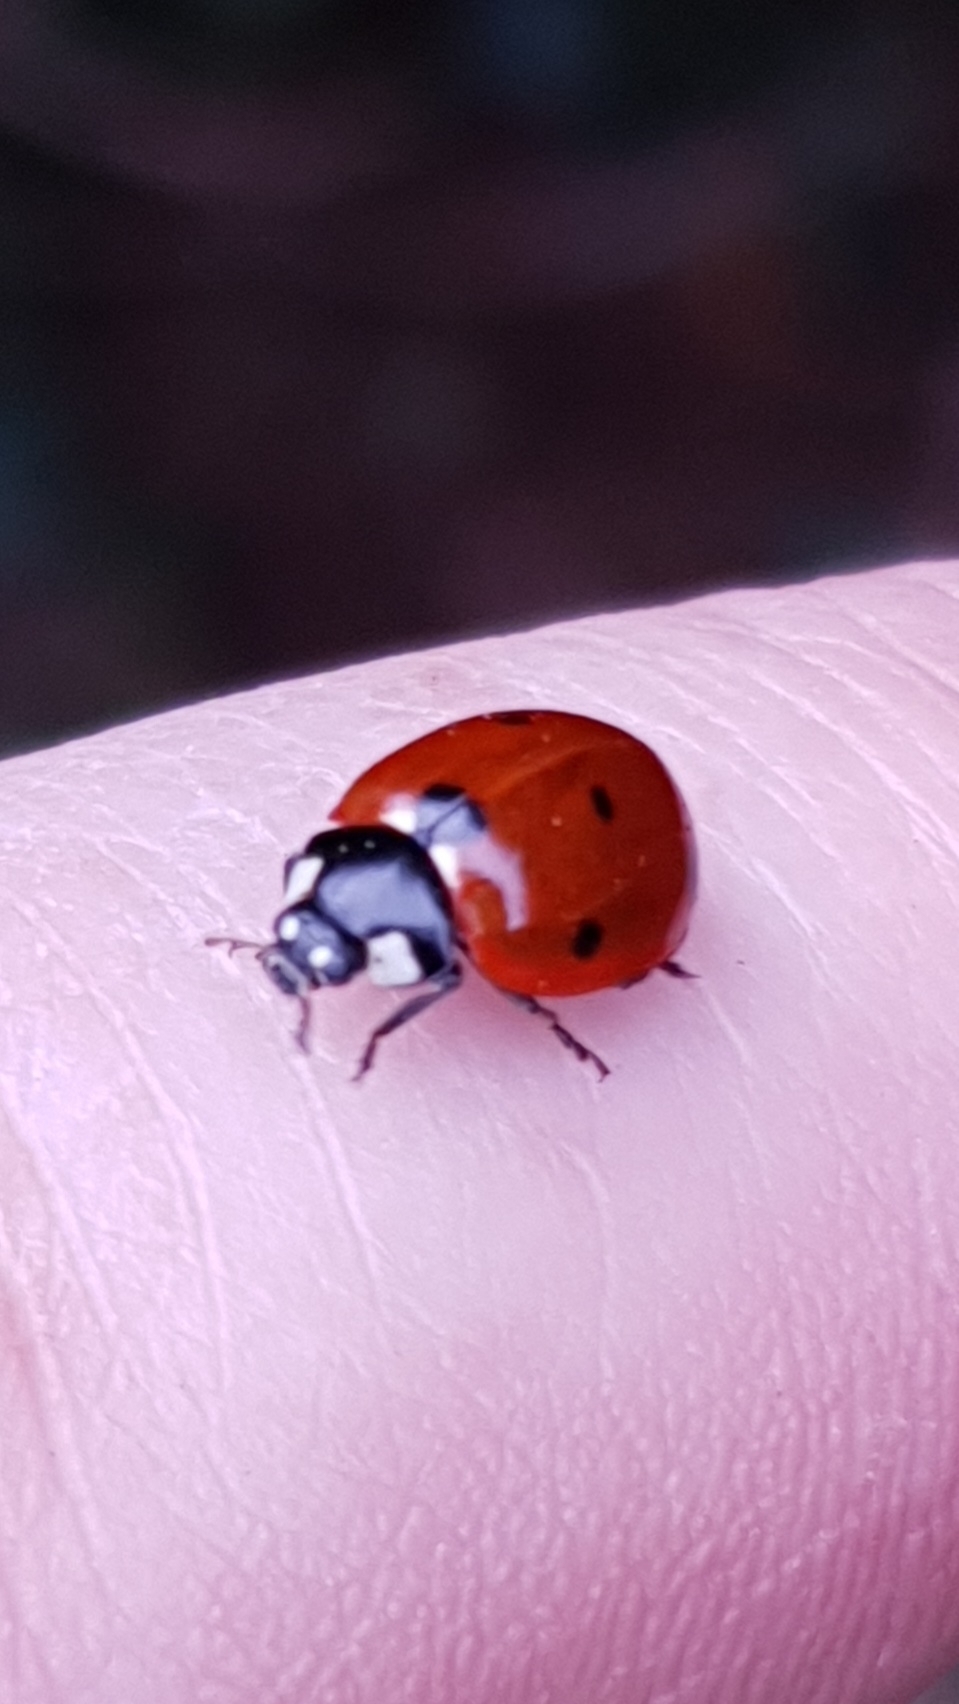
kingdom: Animalia
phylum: Arthropoda
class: Insecta
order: Coleoptera
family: Coccinellidae
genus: Coccinella
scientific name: Coccinella septempunctata
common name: Sevenspotted lady beetle
